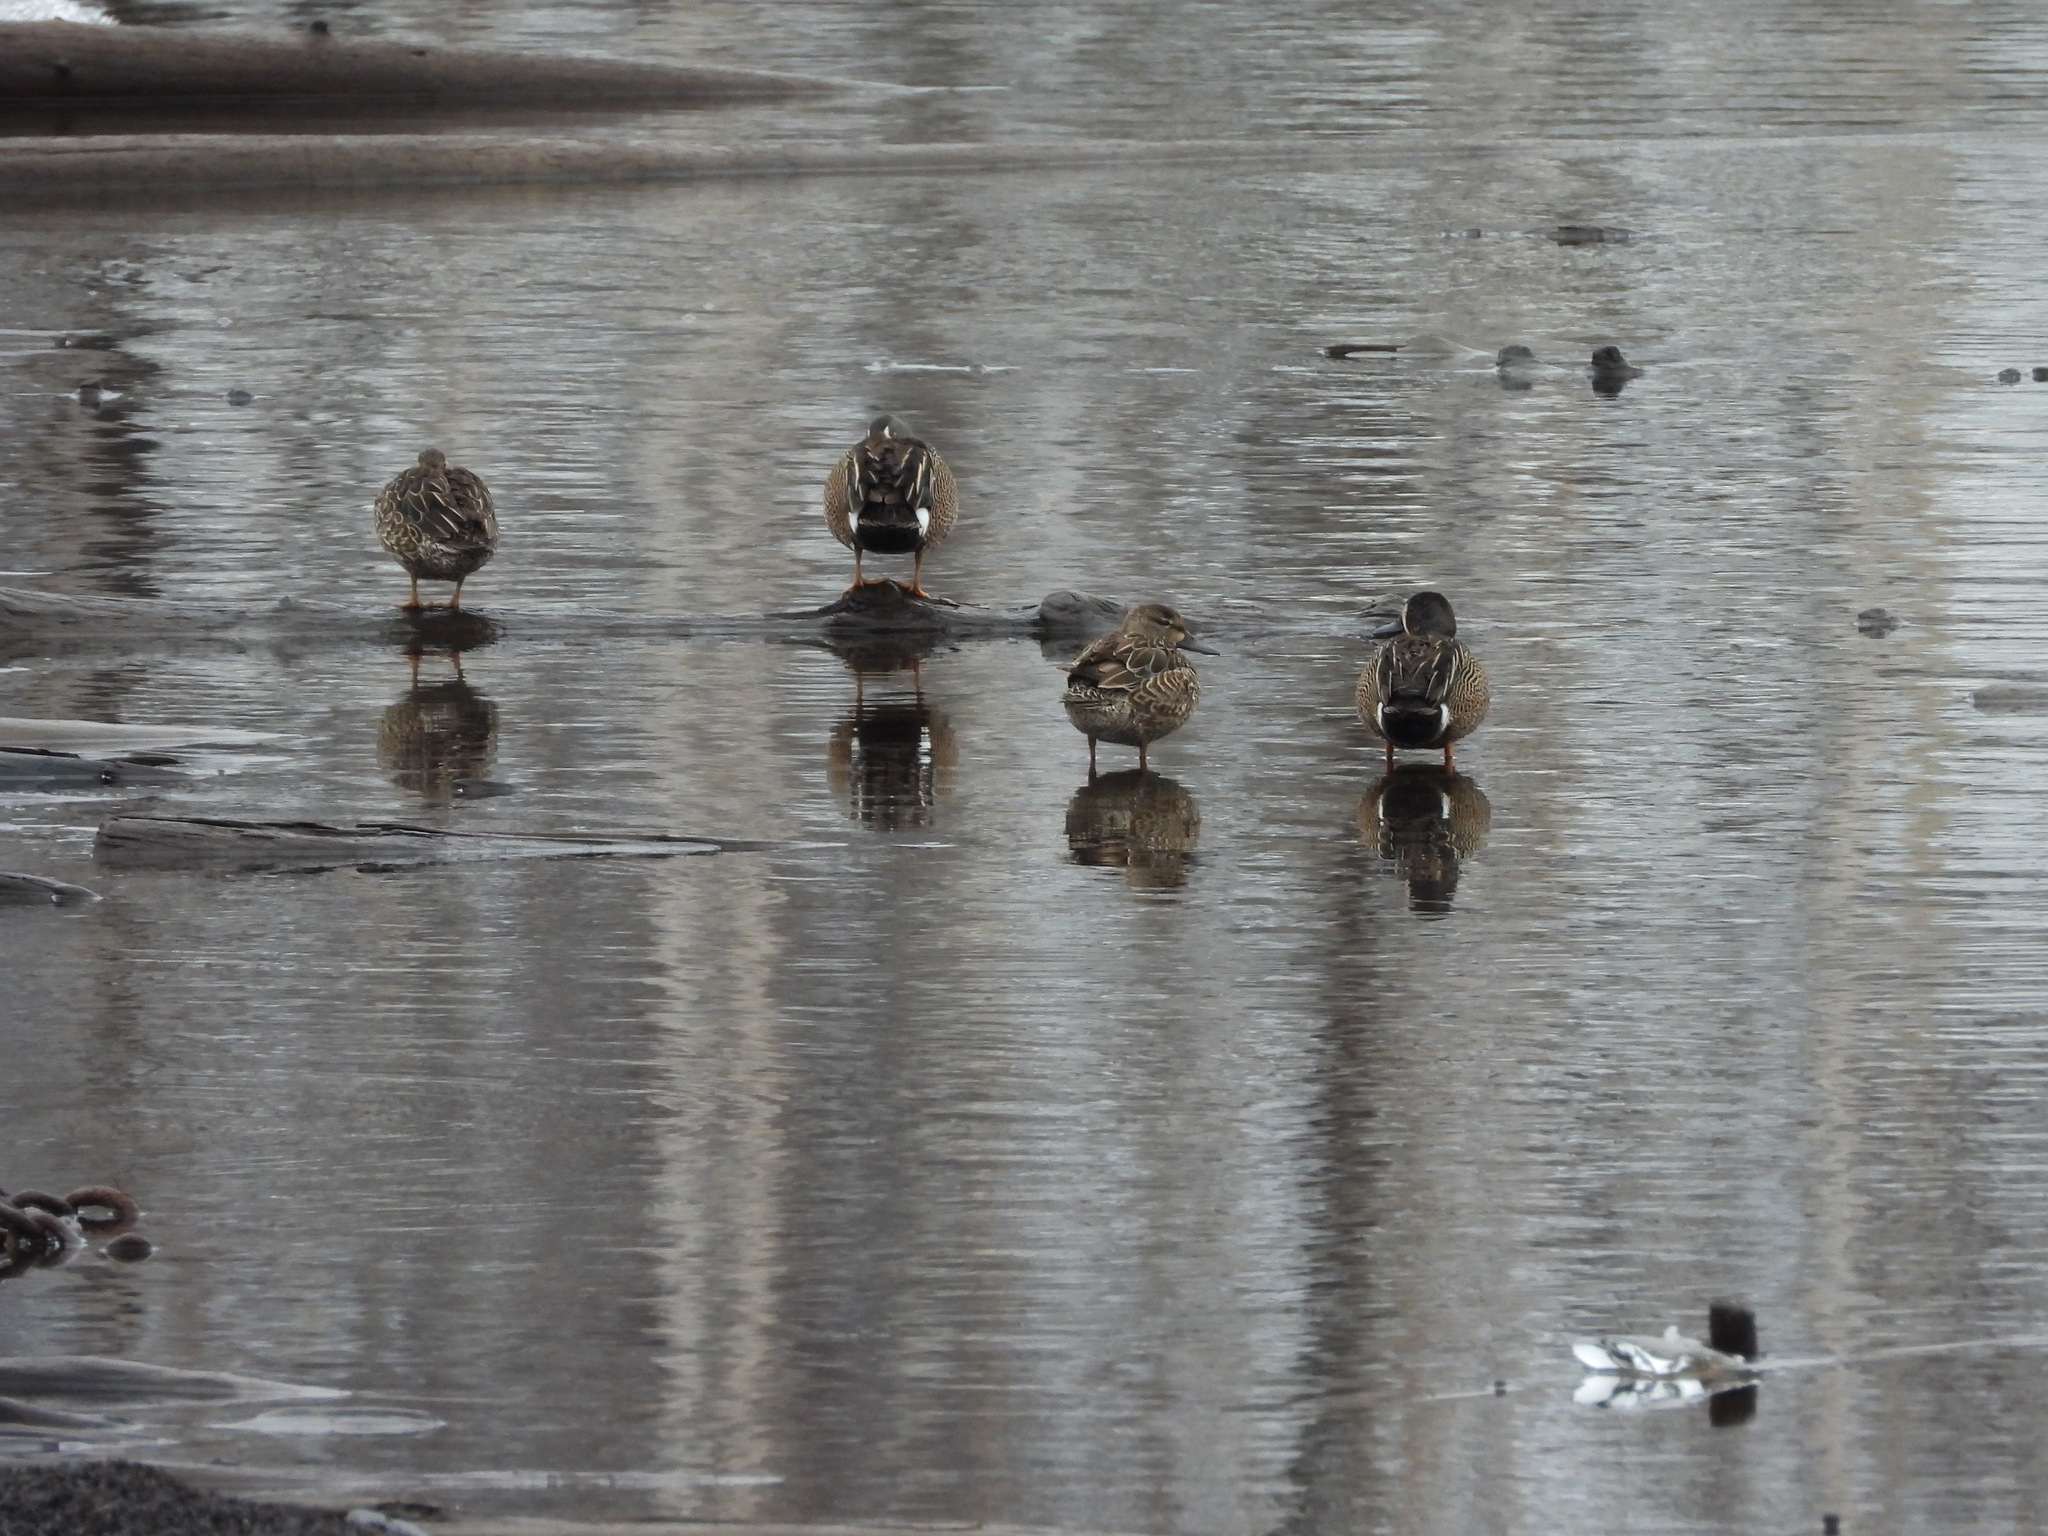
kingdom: Animalia
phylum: Chordata
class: Aves
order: Anseriformes
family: Anatidae
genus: Spatula
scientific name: Spatula discors
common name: Blue-winged teal
